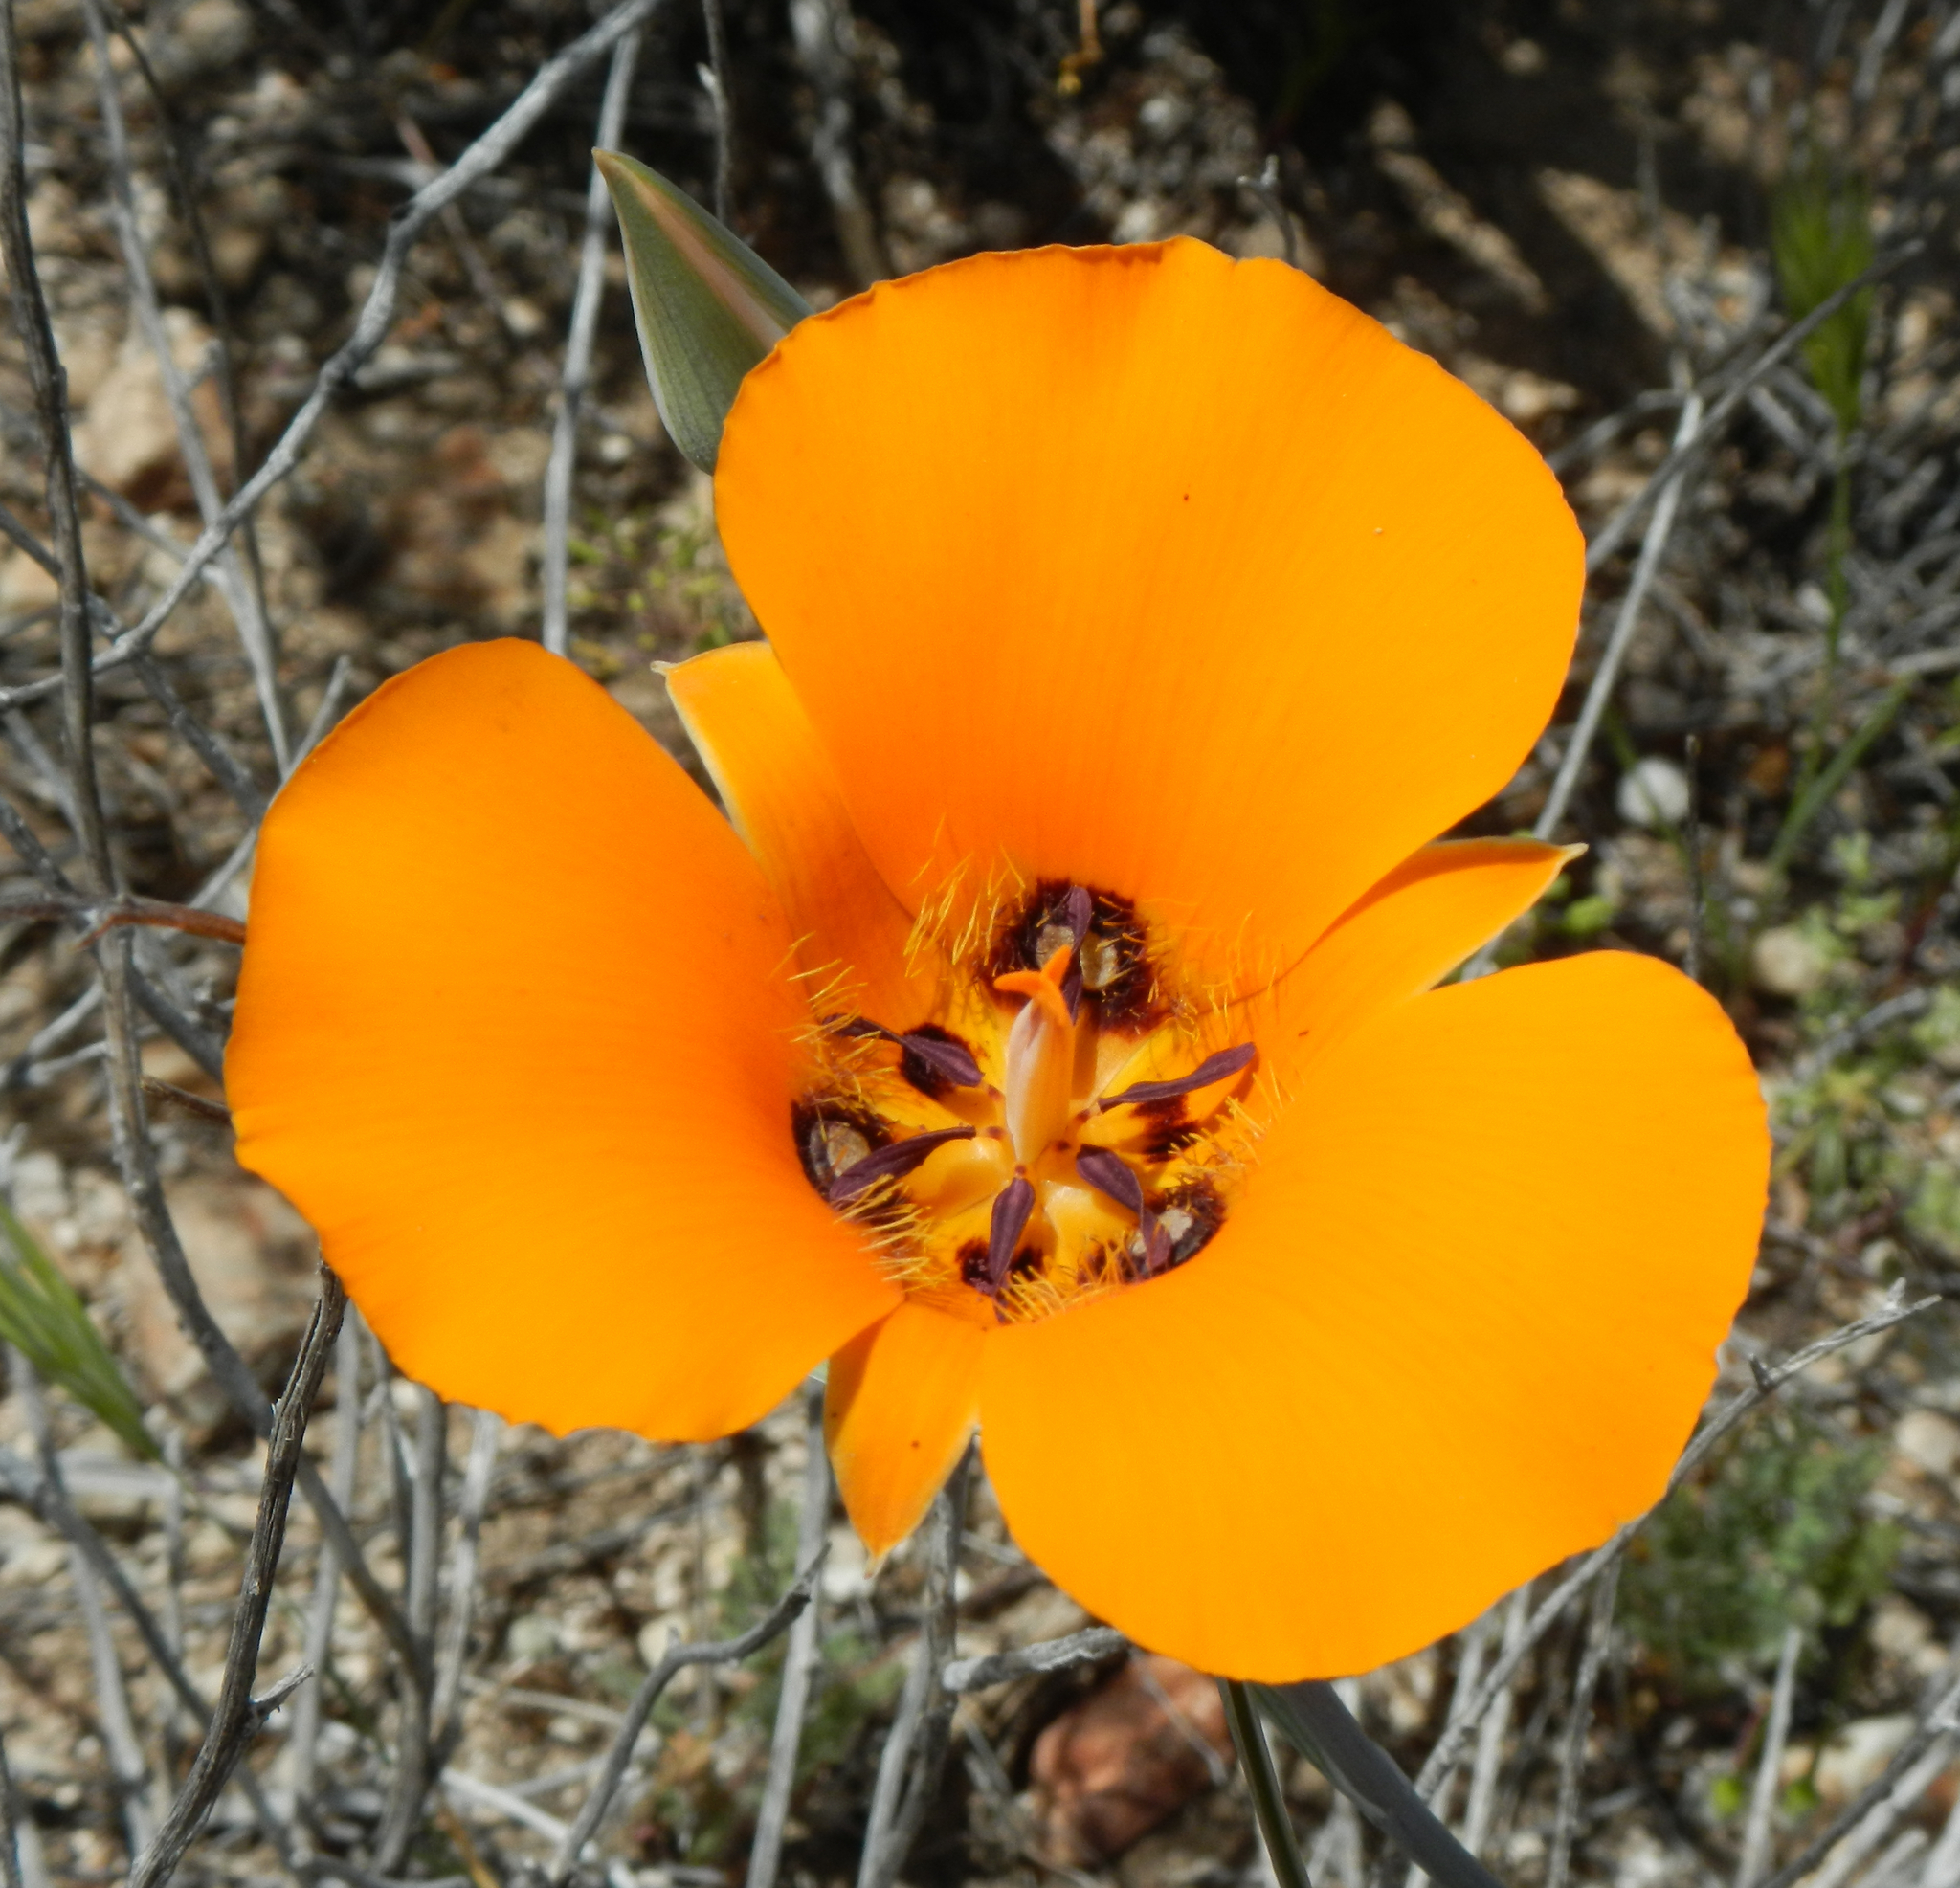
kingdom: Plantae
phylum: Tracheophyta
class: Liliopsida
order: Liliales
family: Liliaceae
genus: Calochortus
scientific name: Calochortus kennedyi
